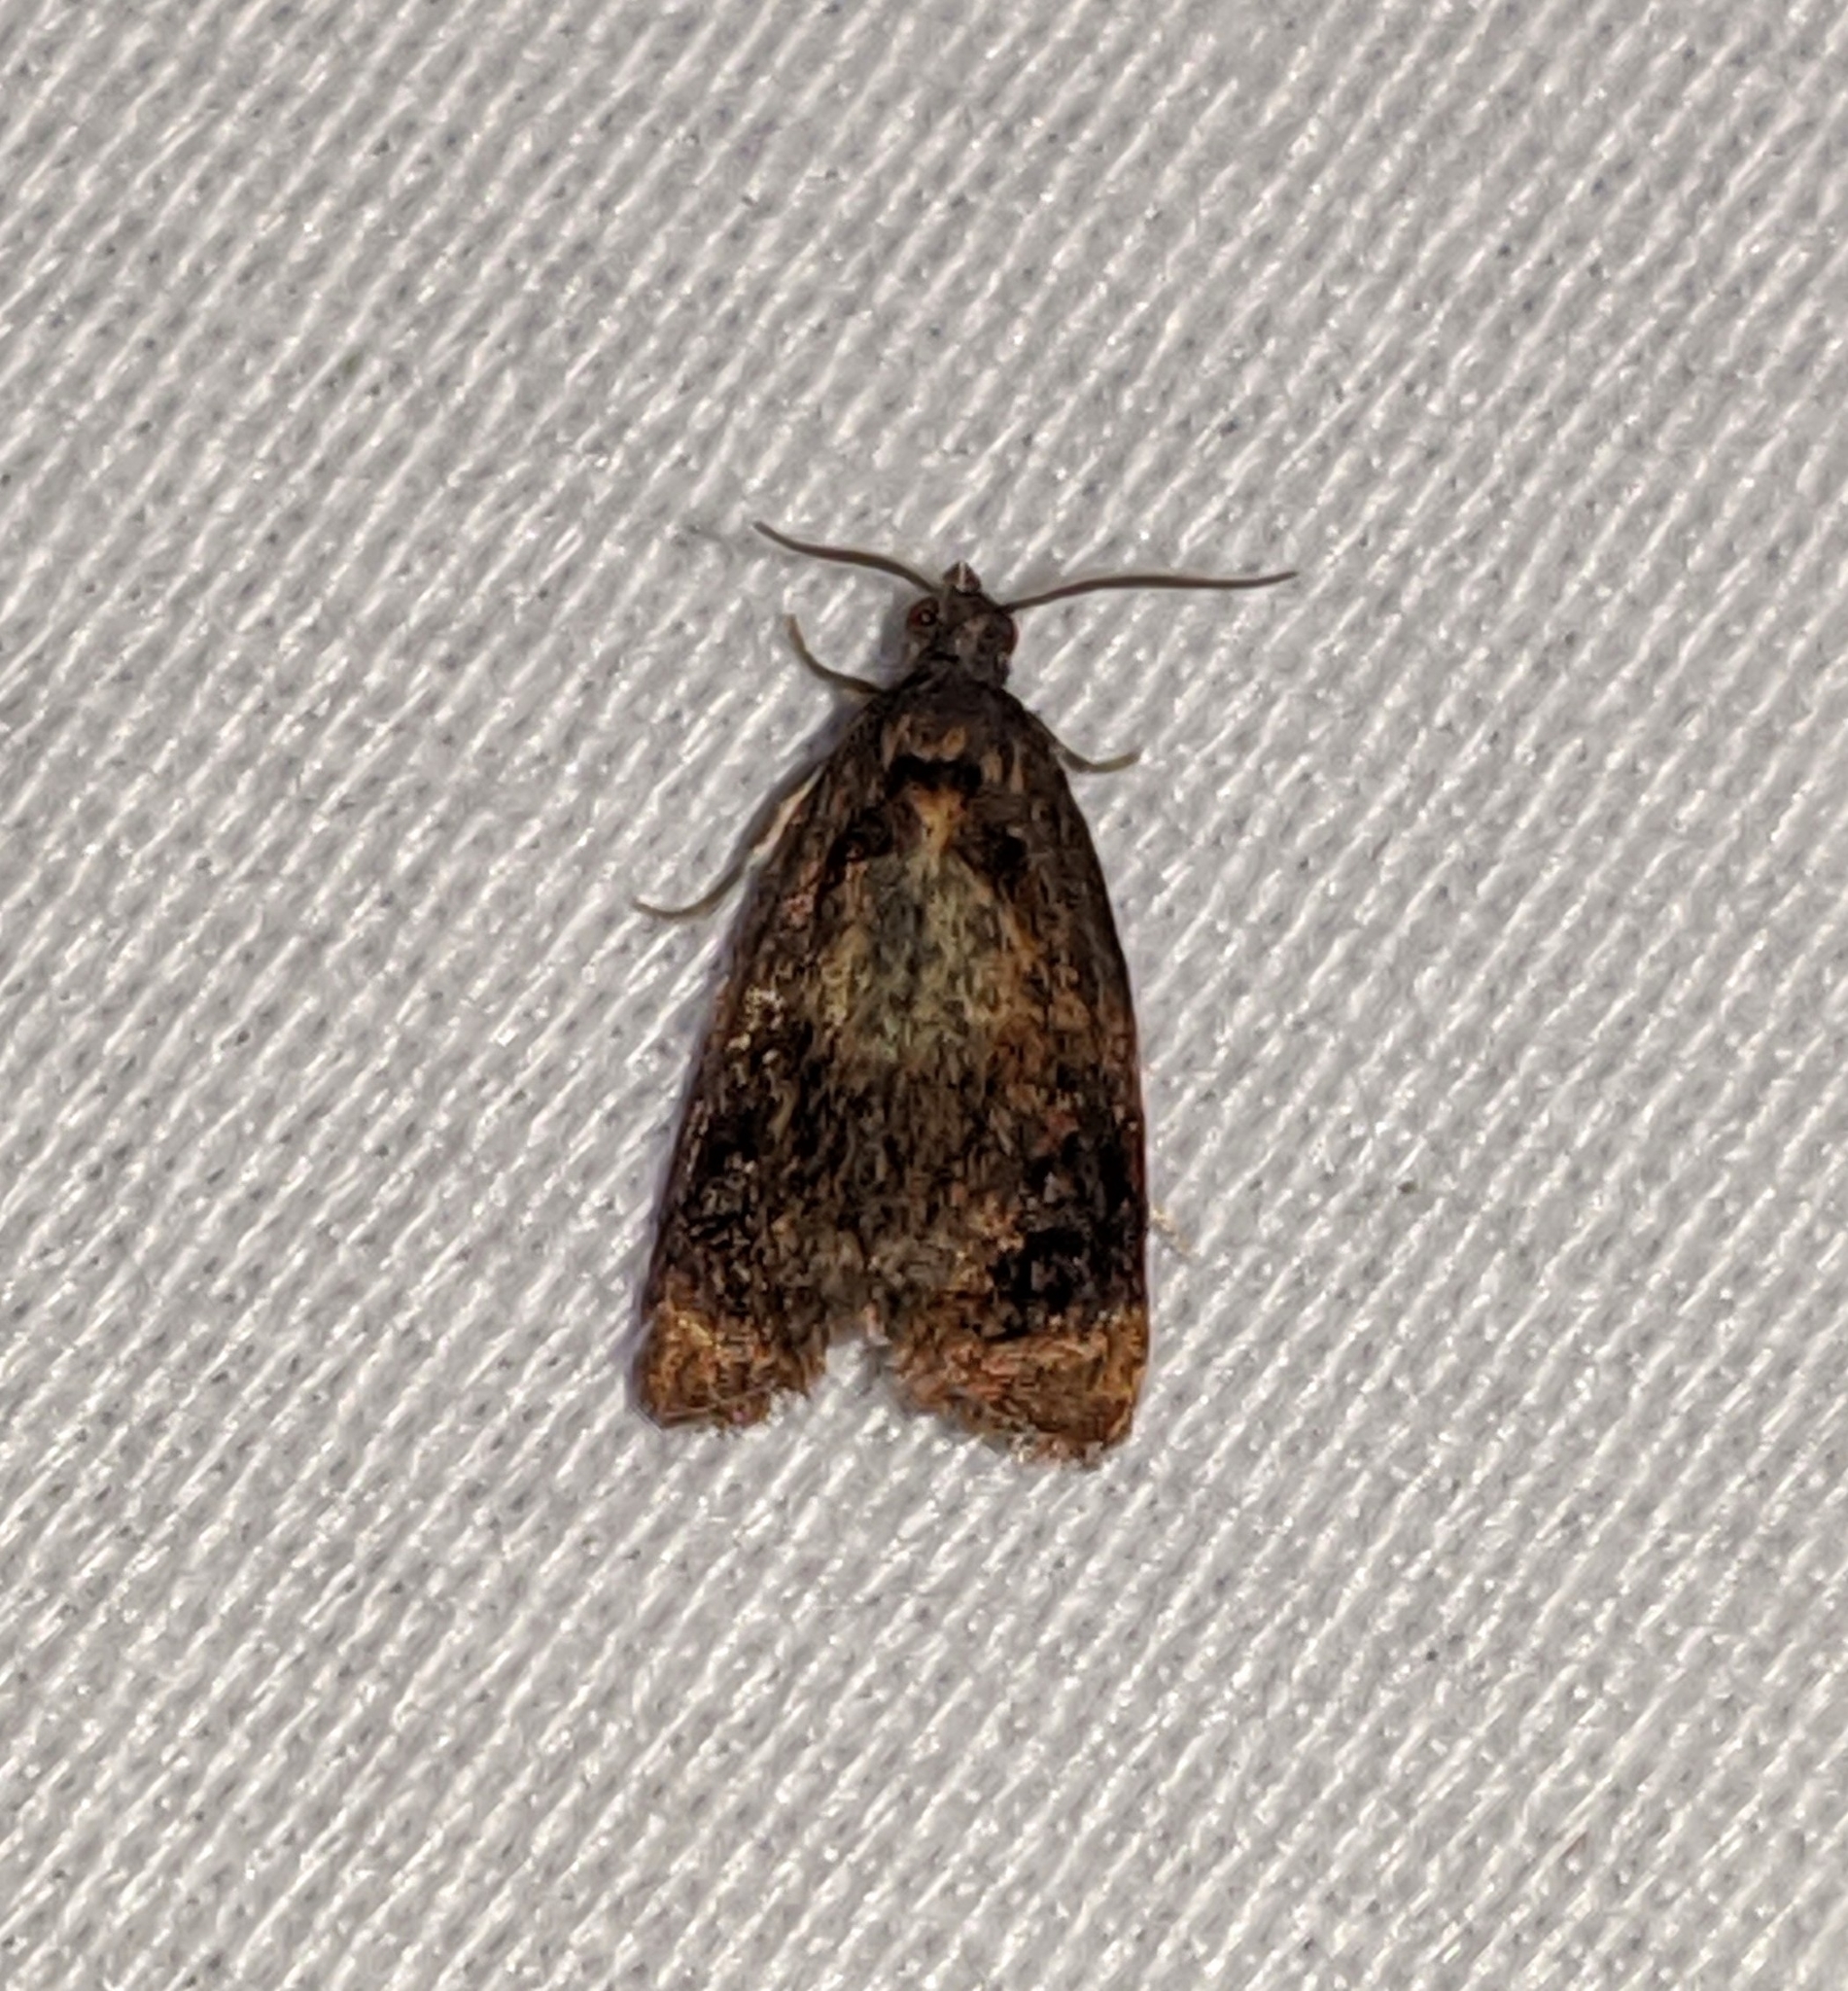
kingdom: Animalia
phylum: Arthropoda
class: Insecta
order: Lepidoptera
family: Tortricidae
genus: Ditula
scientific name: Ditula angustiorana
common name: Red-barred tortrix
